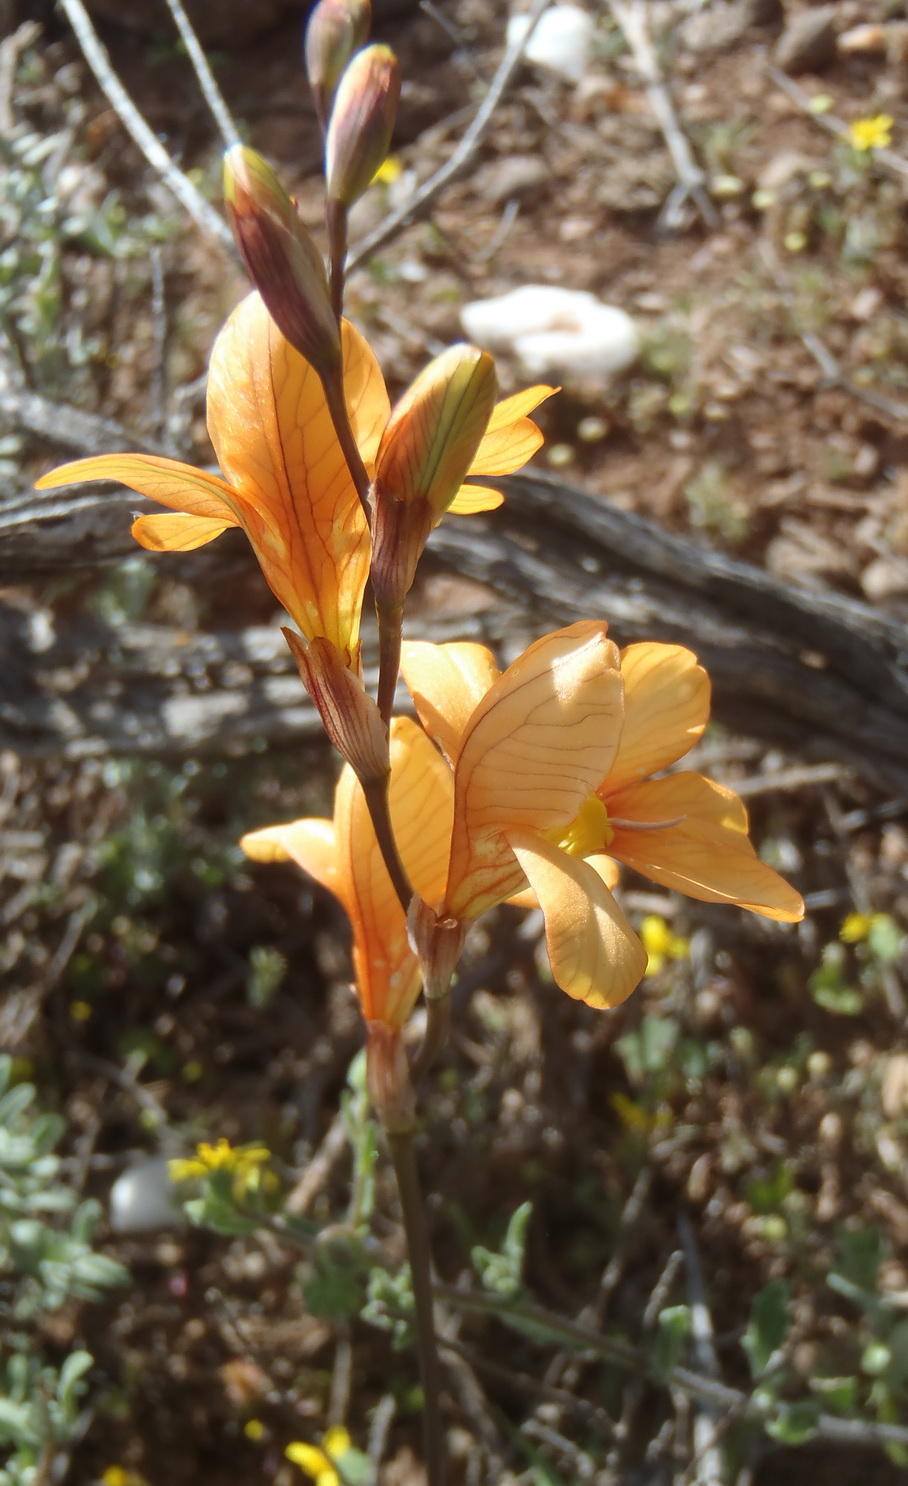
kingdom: Plantae
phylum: Tracheophyta
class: Liliopsida
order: Asparagales
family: Iridaceae
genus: Tritonia
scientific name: Tritonia securigera
